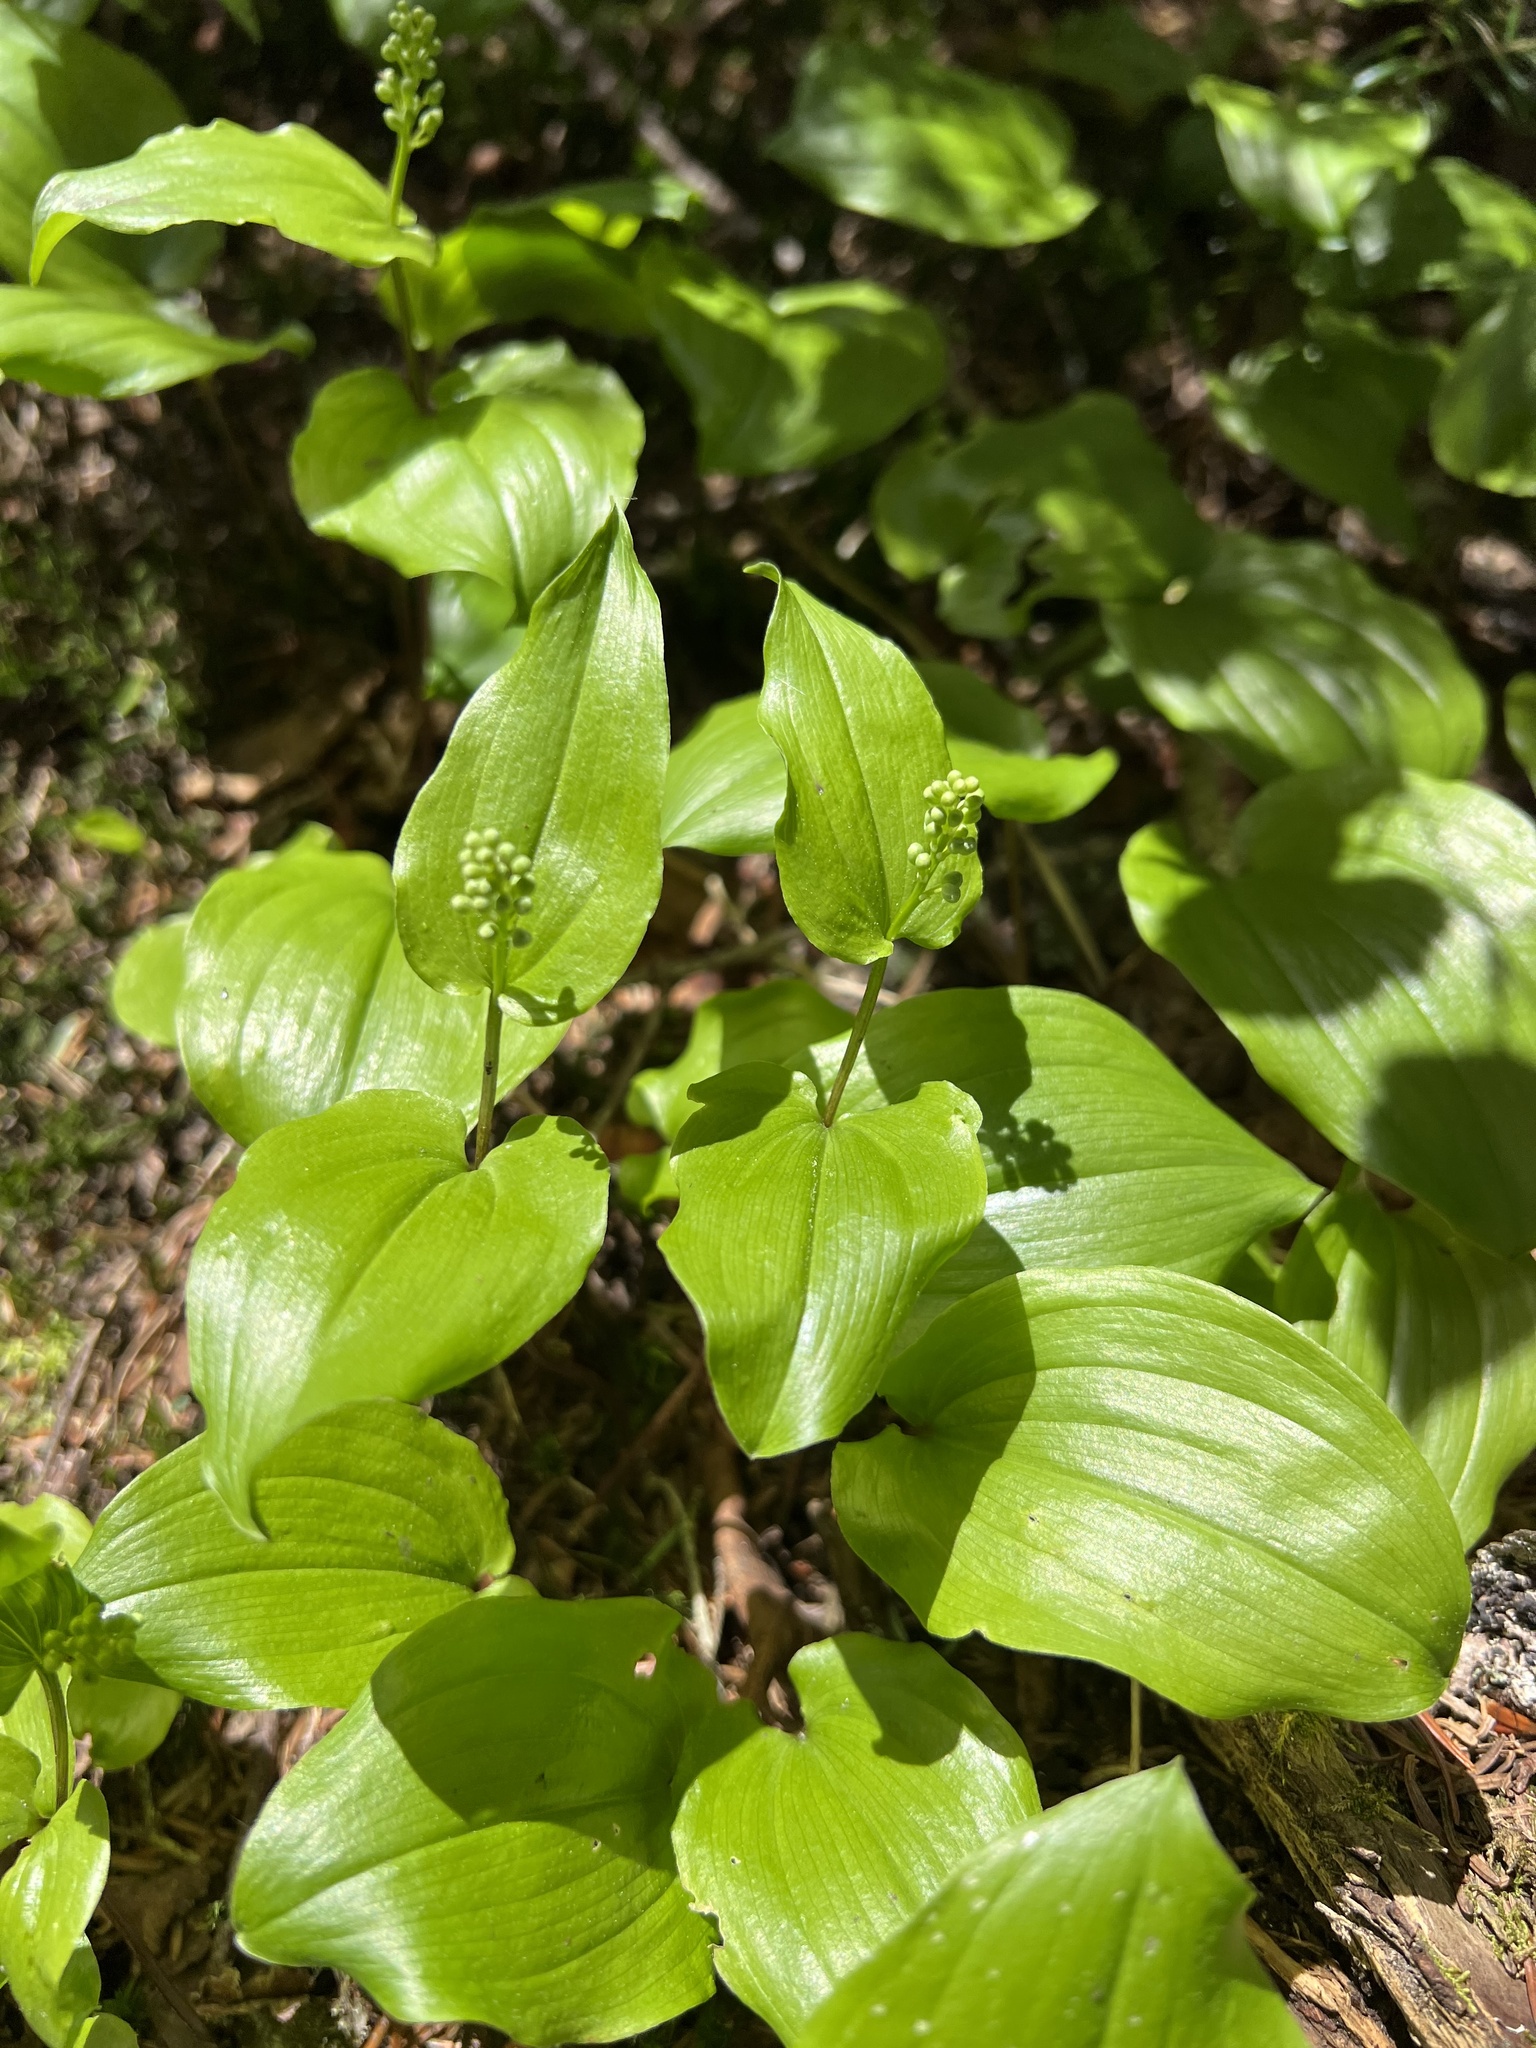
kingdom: Plantae
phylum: Tracheophyta
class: Liliopsida
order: Asparagales
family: Asparagaceae
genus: Maianthemum
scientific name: Maianthemum canadense
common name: False lily-of-the-valley
